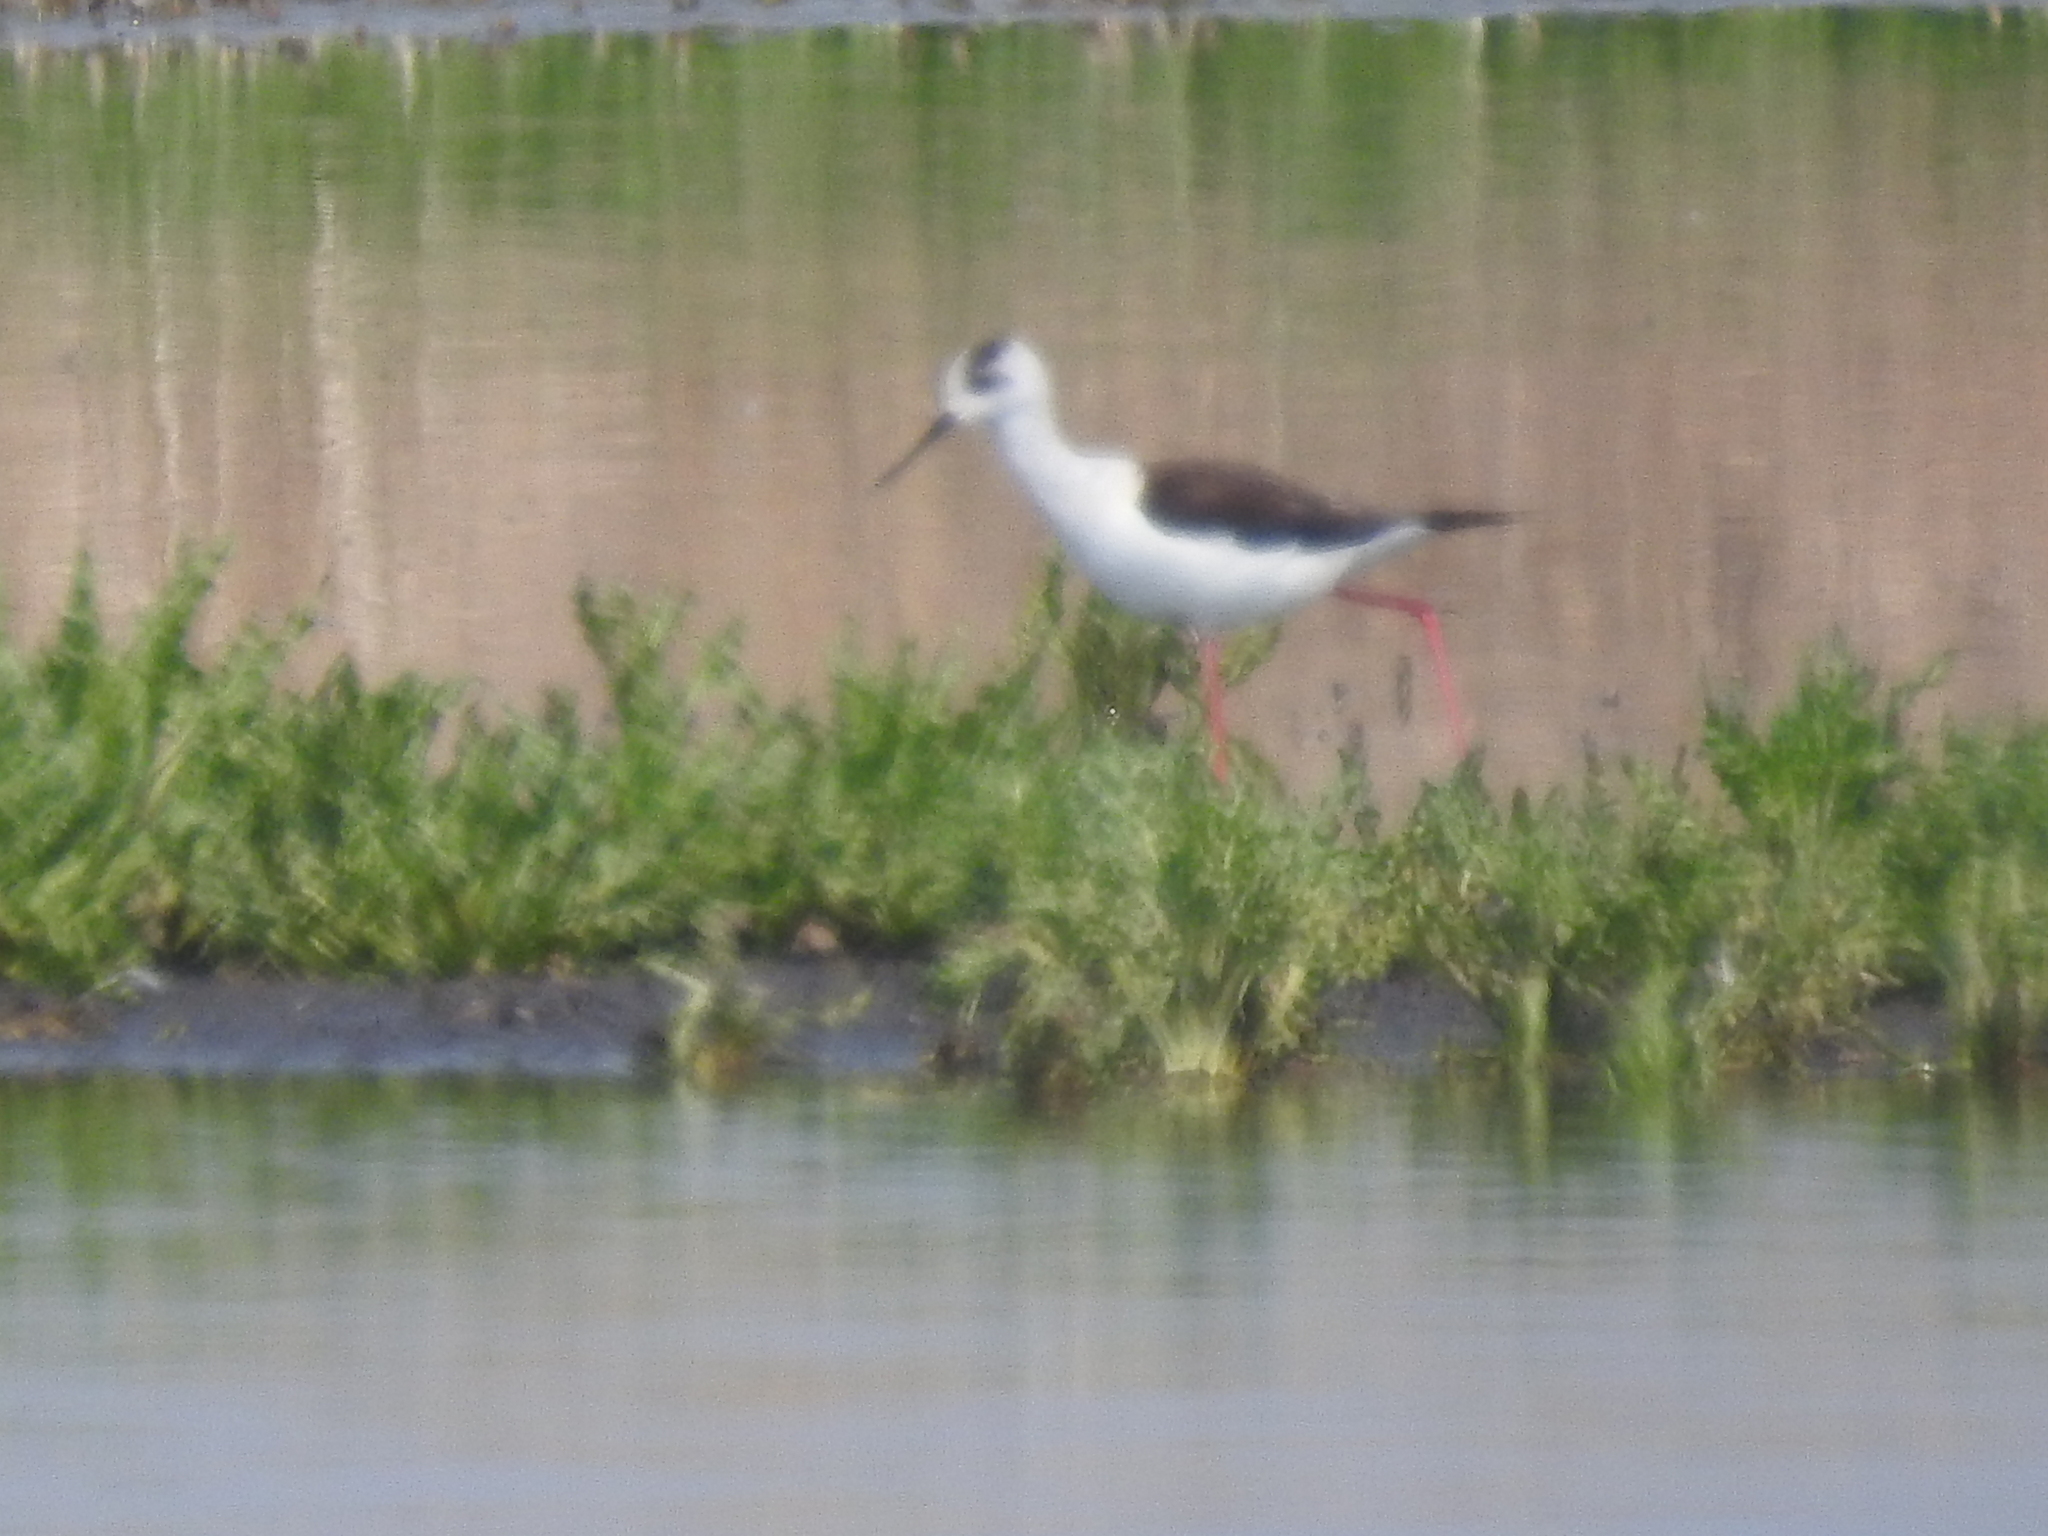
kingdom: Animalia
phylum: Chordata
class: Aves
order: Charadriiformes
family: Recurvirostridae
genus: Himantopus
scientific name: Himantopus himantopus
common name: Black-winged stilt
